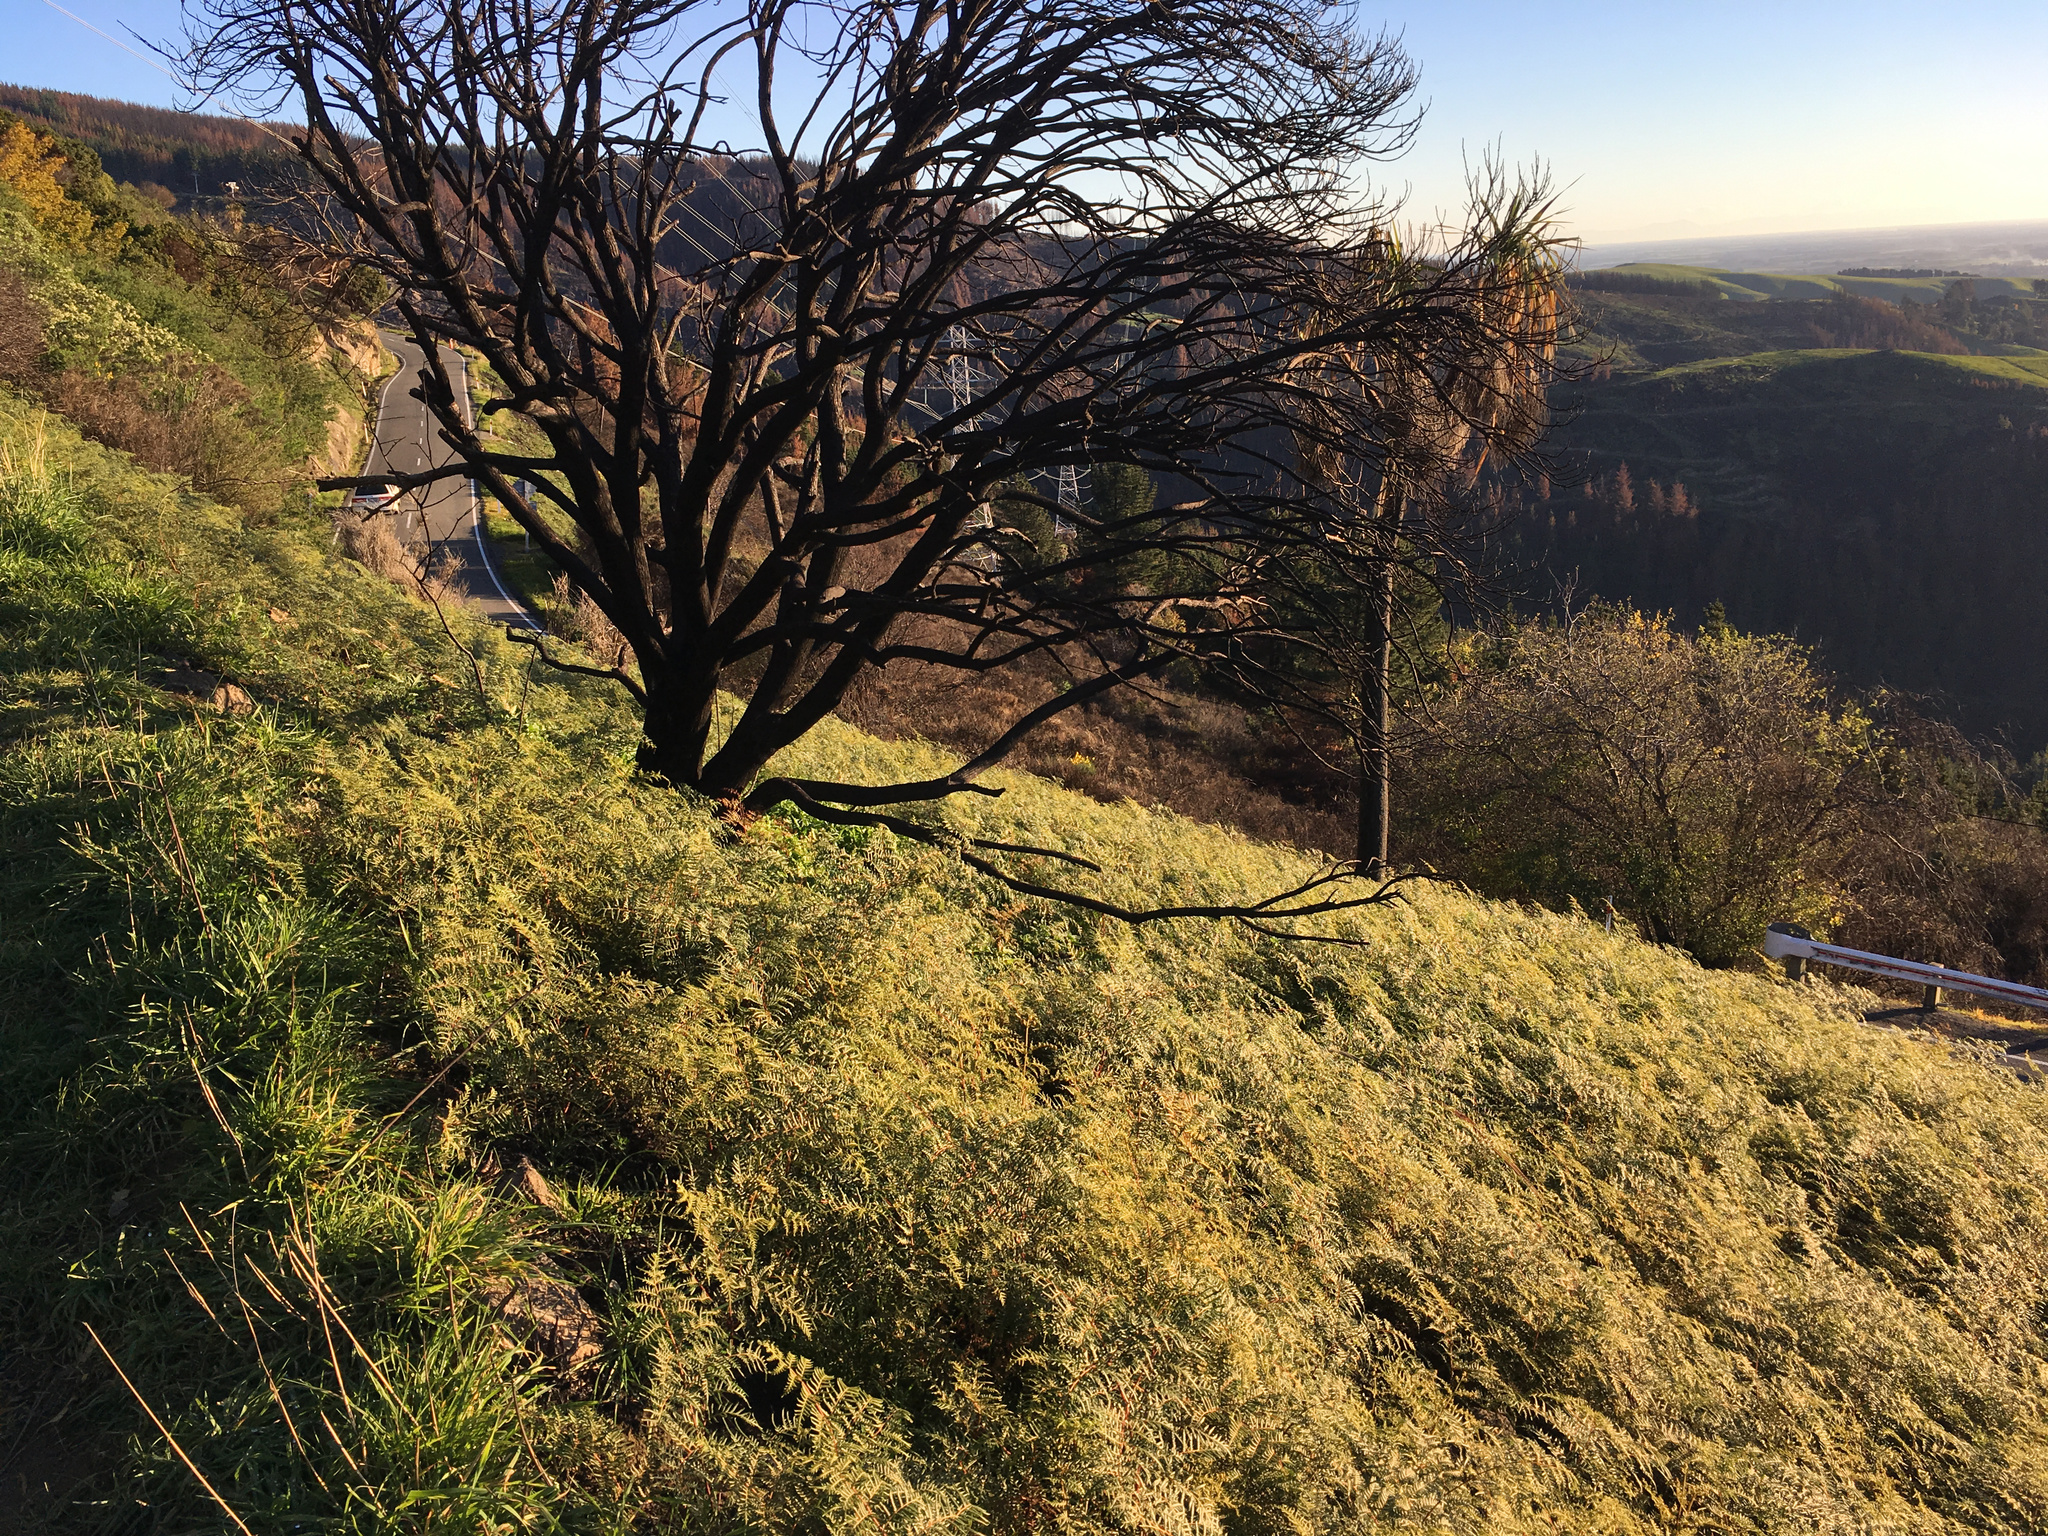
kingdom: Plantae
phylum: Tracheophyta
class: Polypodiopsida
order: Polypodiales
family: Dennstaedtiaceae
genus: Pteridium
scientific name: Pteridium esculentum
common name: Bracken fern
